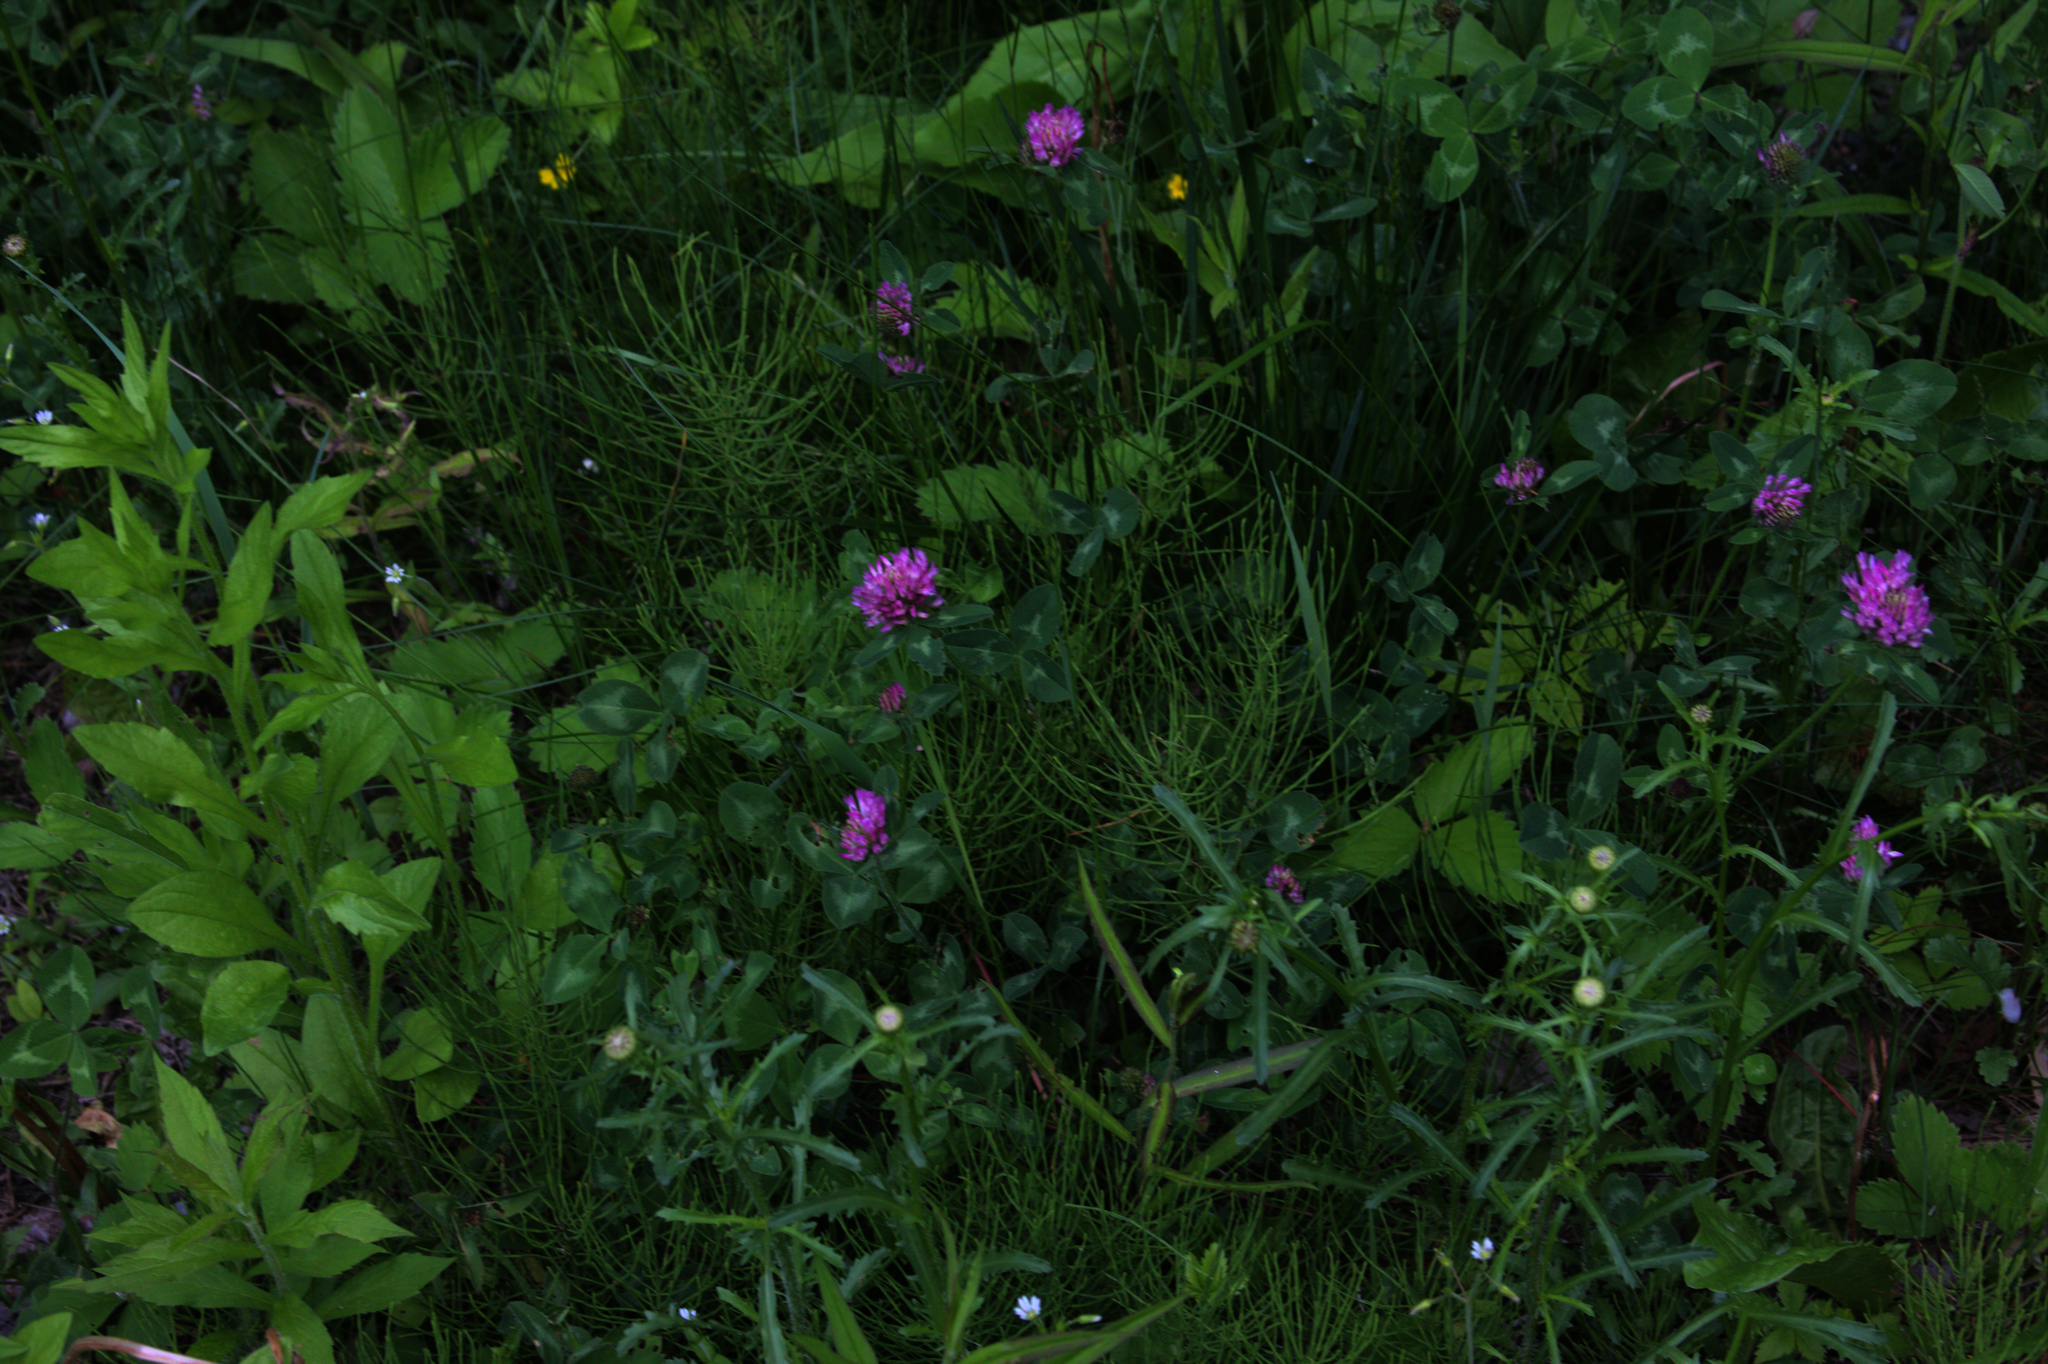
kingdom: Plantae
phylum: Tracheophyta
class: Magnoliopsida
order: Fabales
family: Fabaceae
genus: Trifolium
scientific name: Trifolium pratense
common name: Red clover
